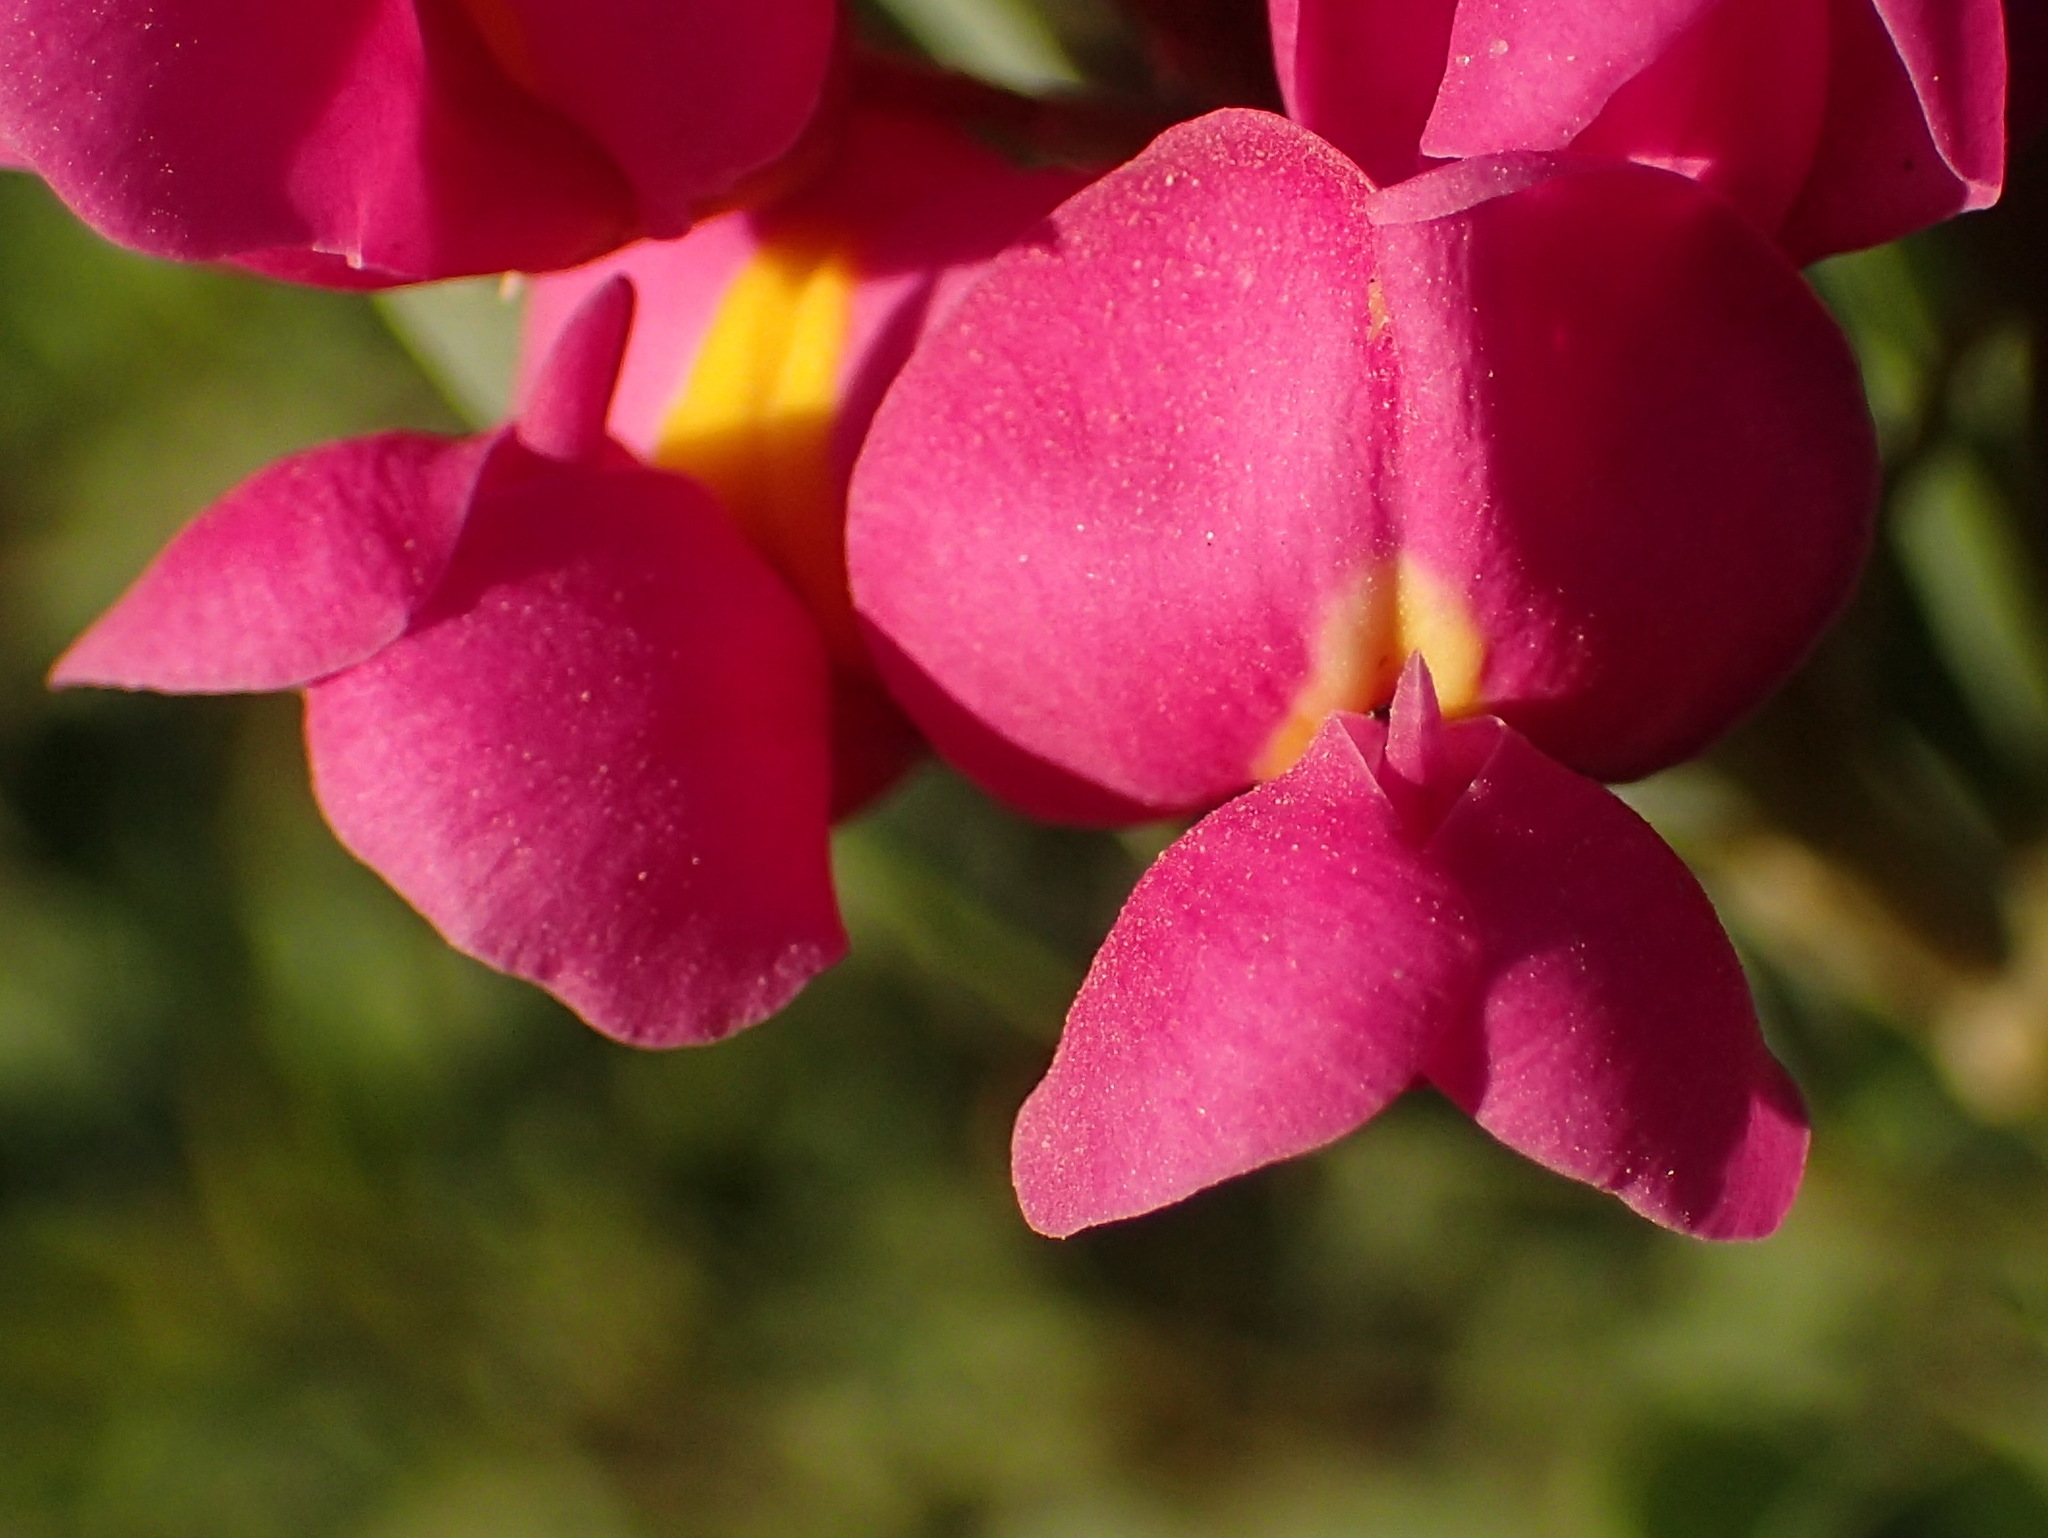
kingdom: Plantae
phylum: Tracheophyta
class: Magnoliopsida
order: Fabales
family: Fabaceae
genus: Hypocalyptus
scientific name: Hypocalyptus sophoroides
